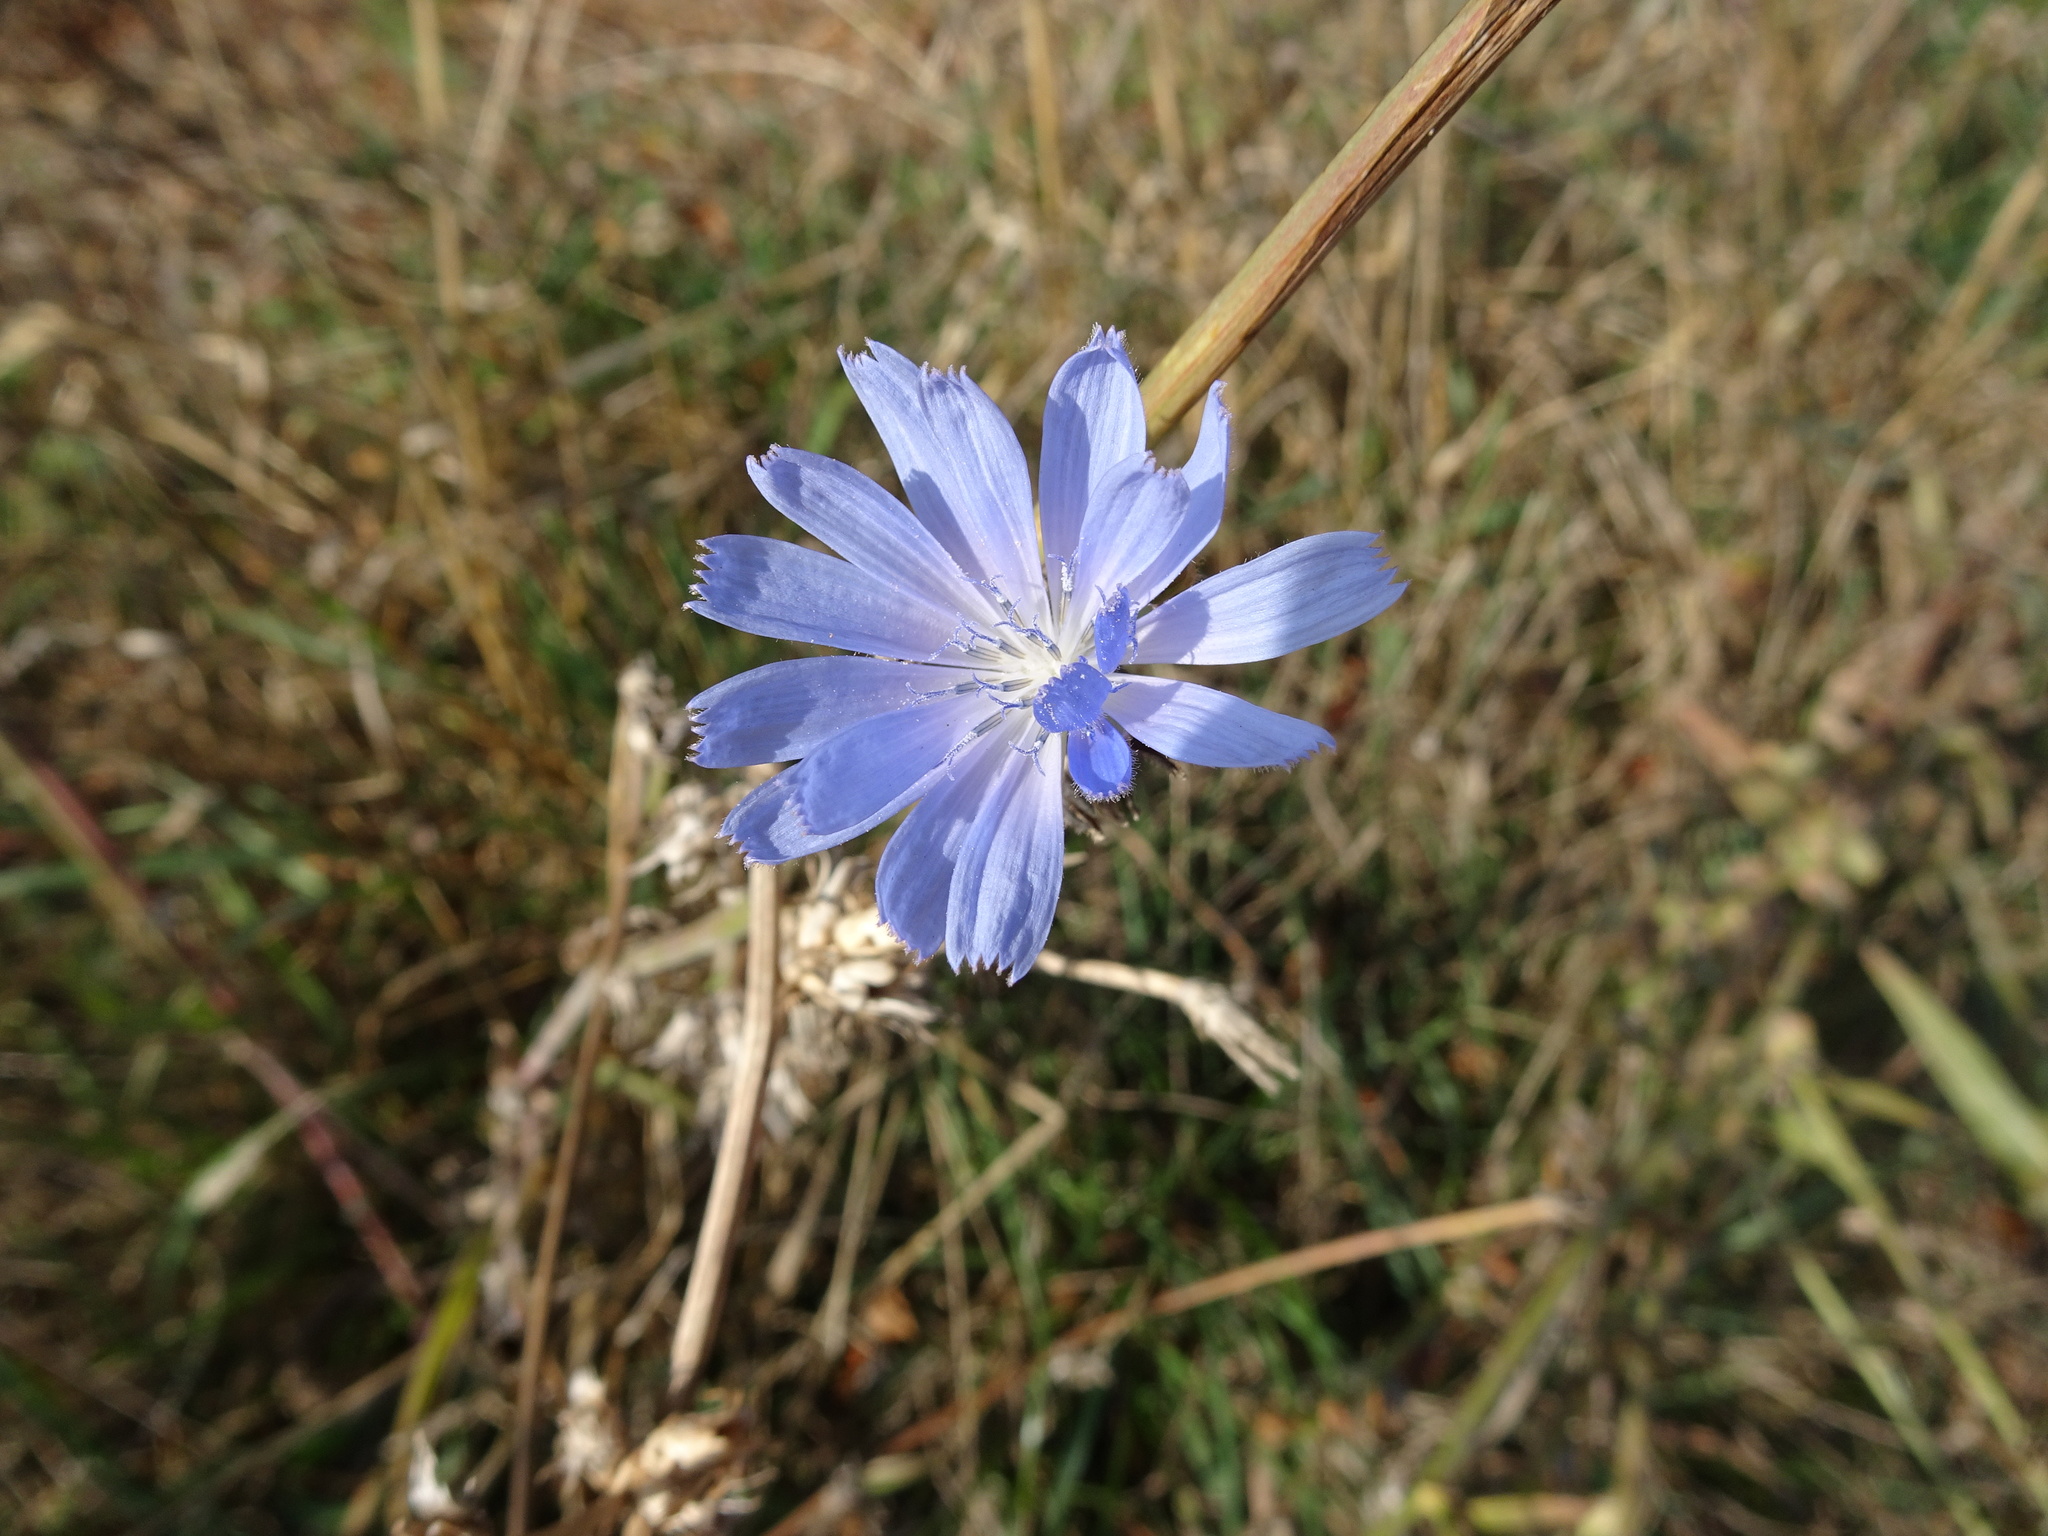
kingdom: Plantae
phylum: Tracheophyta
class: Magnoliopsida
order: Asterales
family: Asteraceae
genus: Cichorium
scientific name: Cichorium intybus
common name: Chicory
